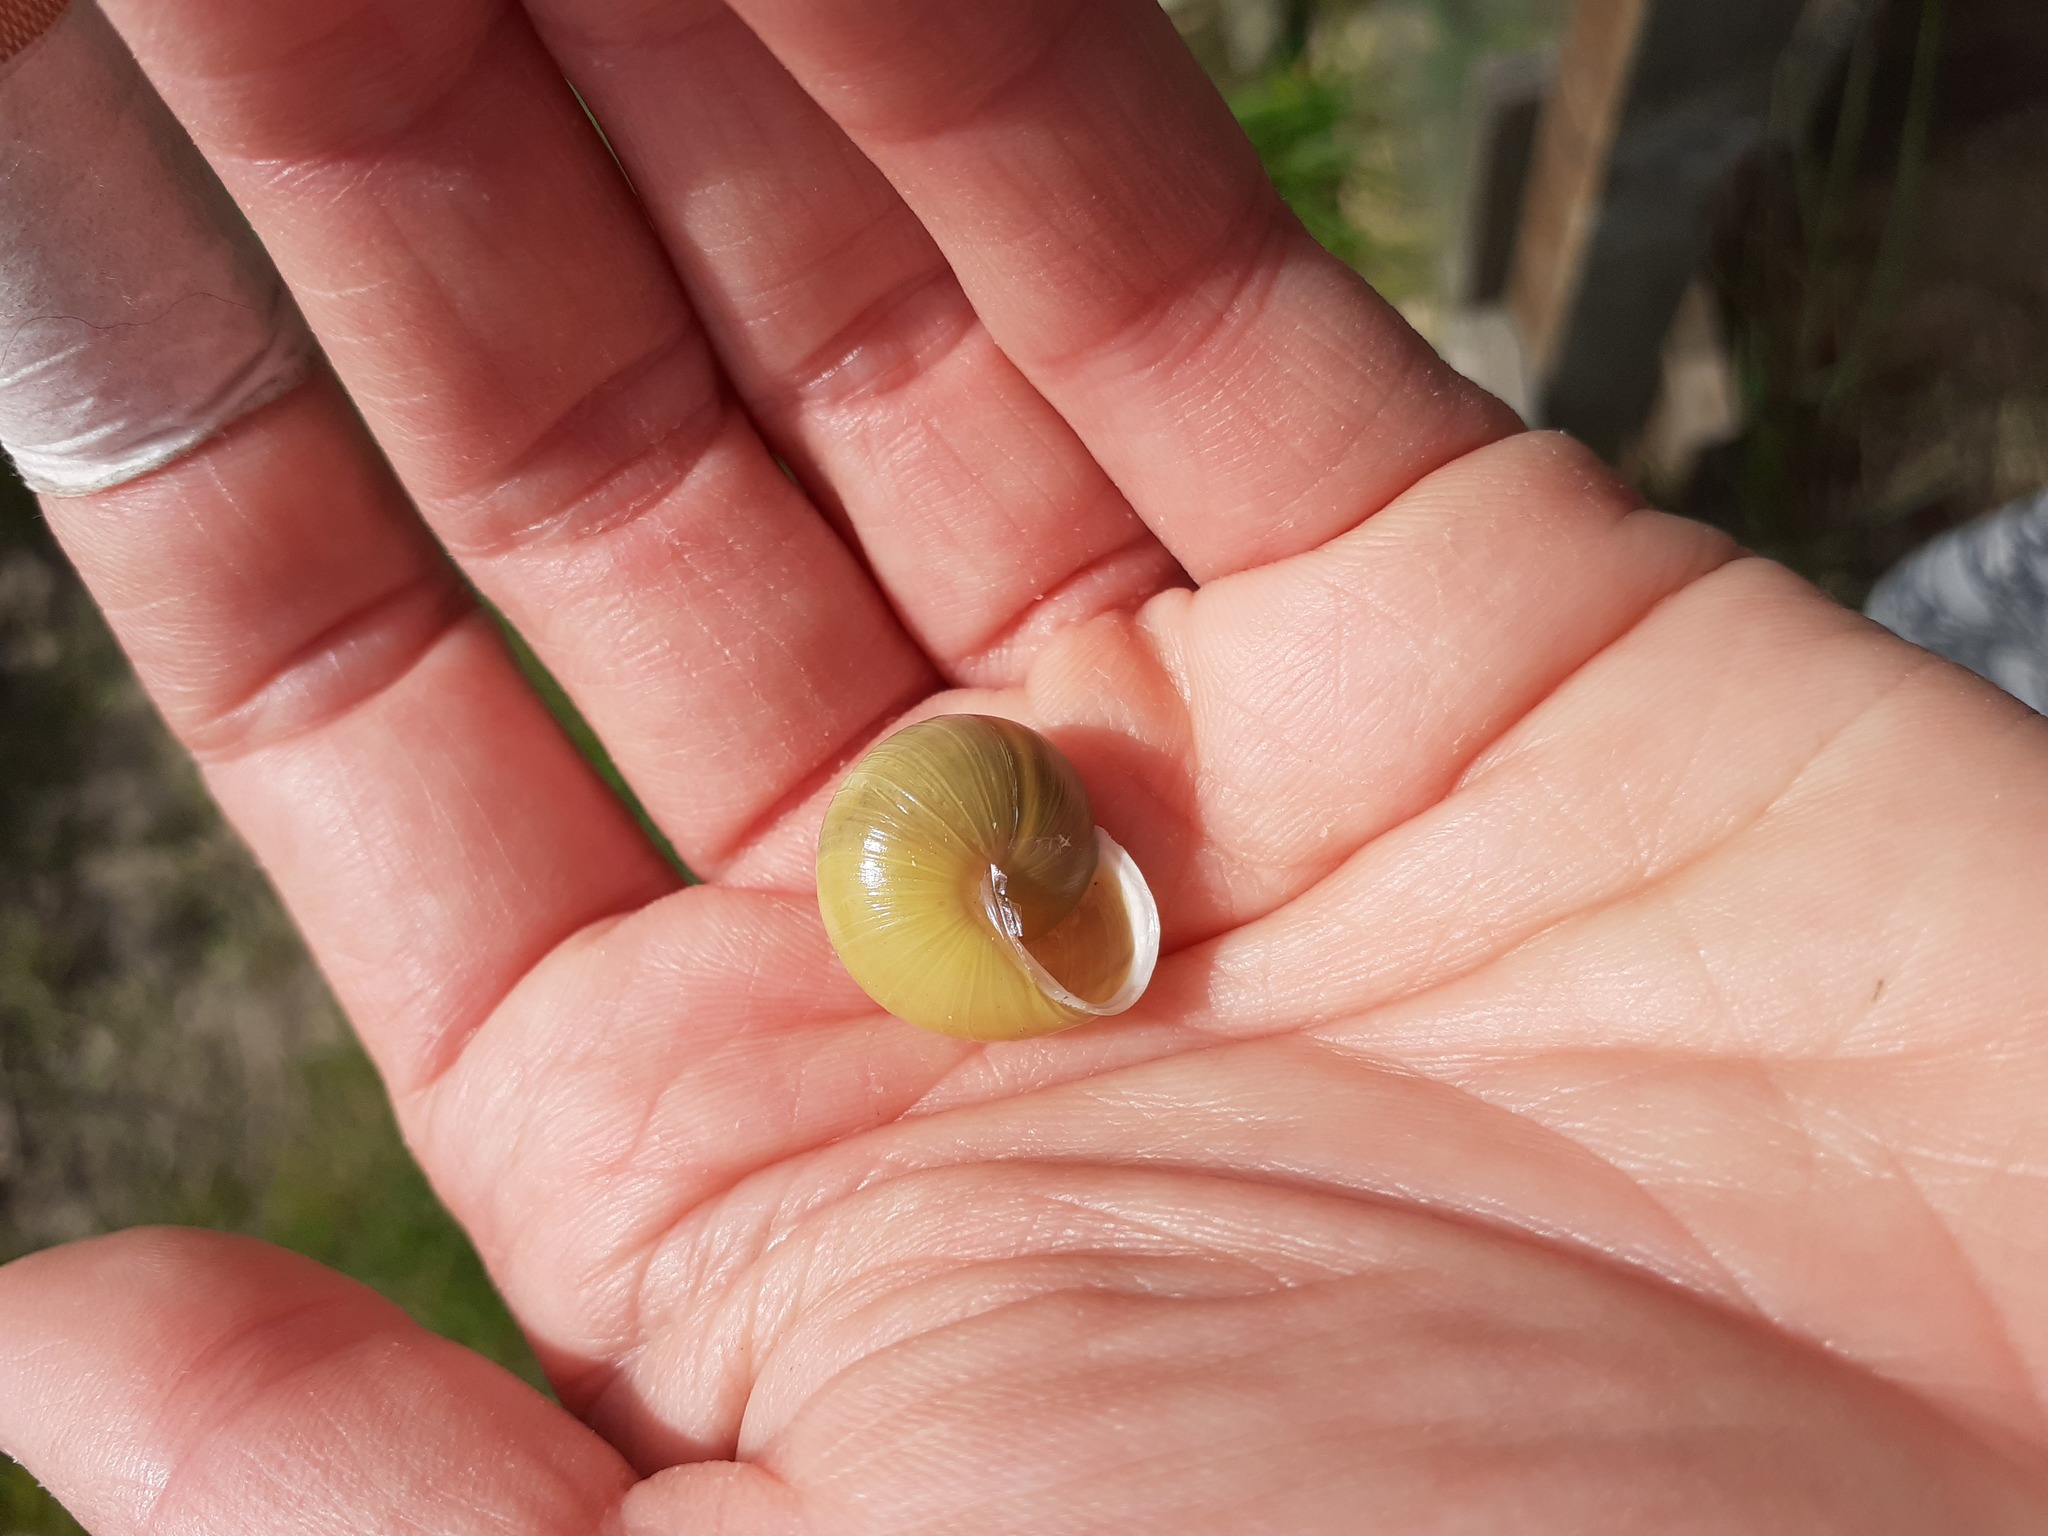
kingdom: Animalia
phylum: Mollusca
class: Gastropoda
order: Stylommatophora
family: Helicidae
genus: Cepaea
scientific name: Cepaea hortensis
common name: White-lip gardensnail
